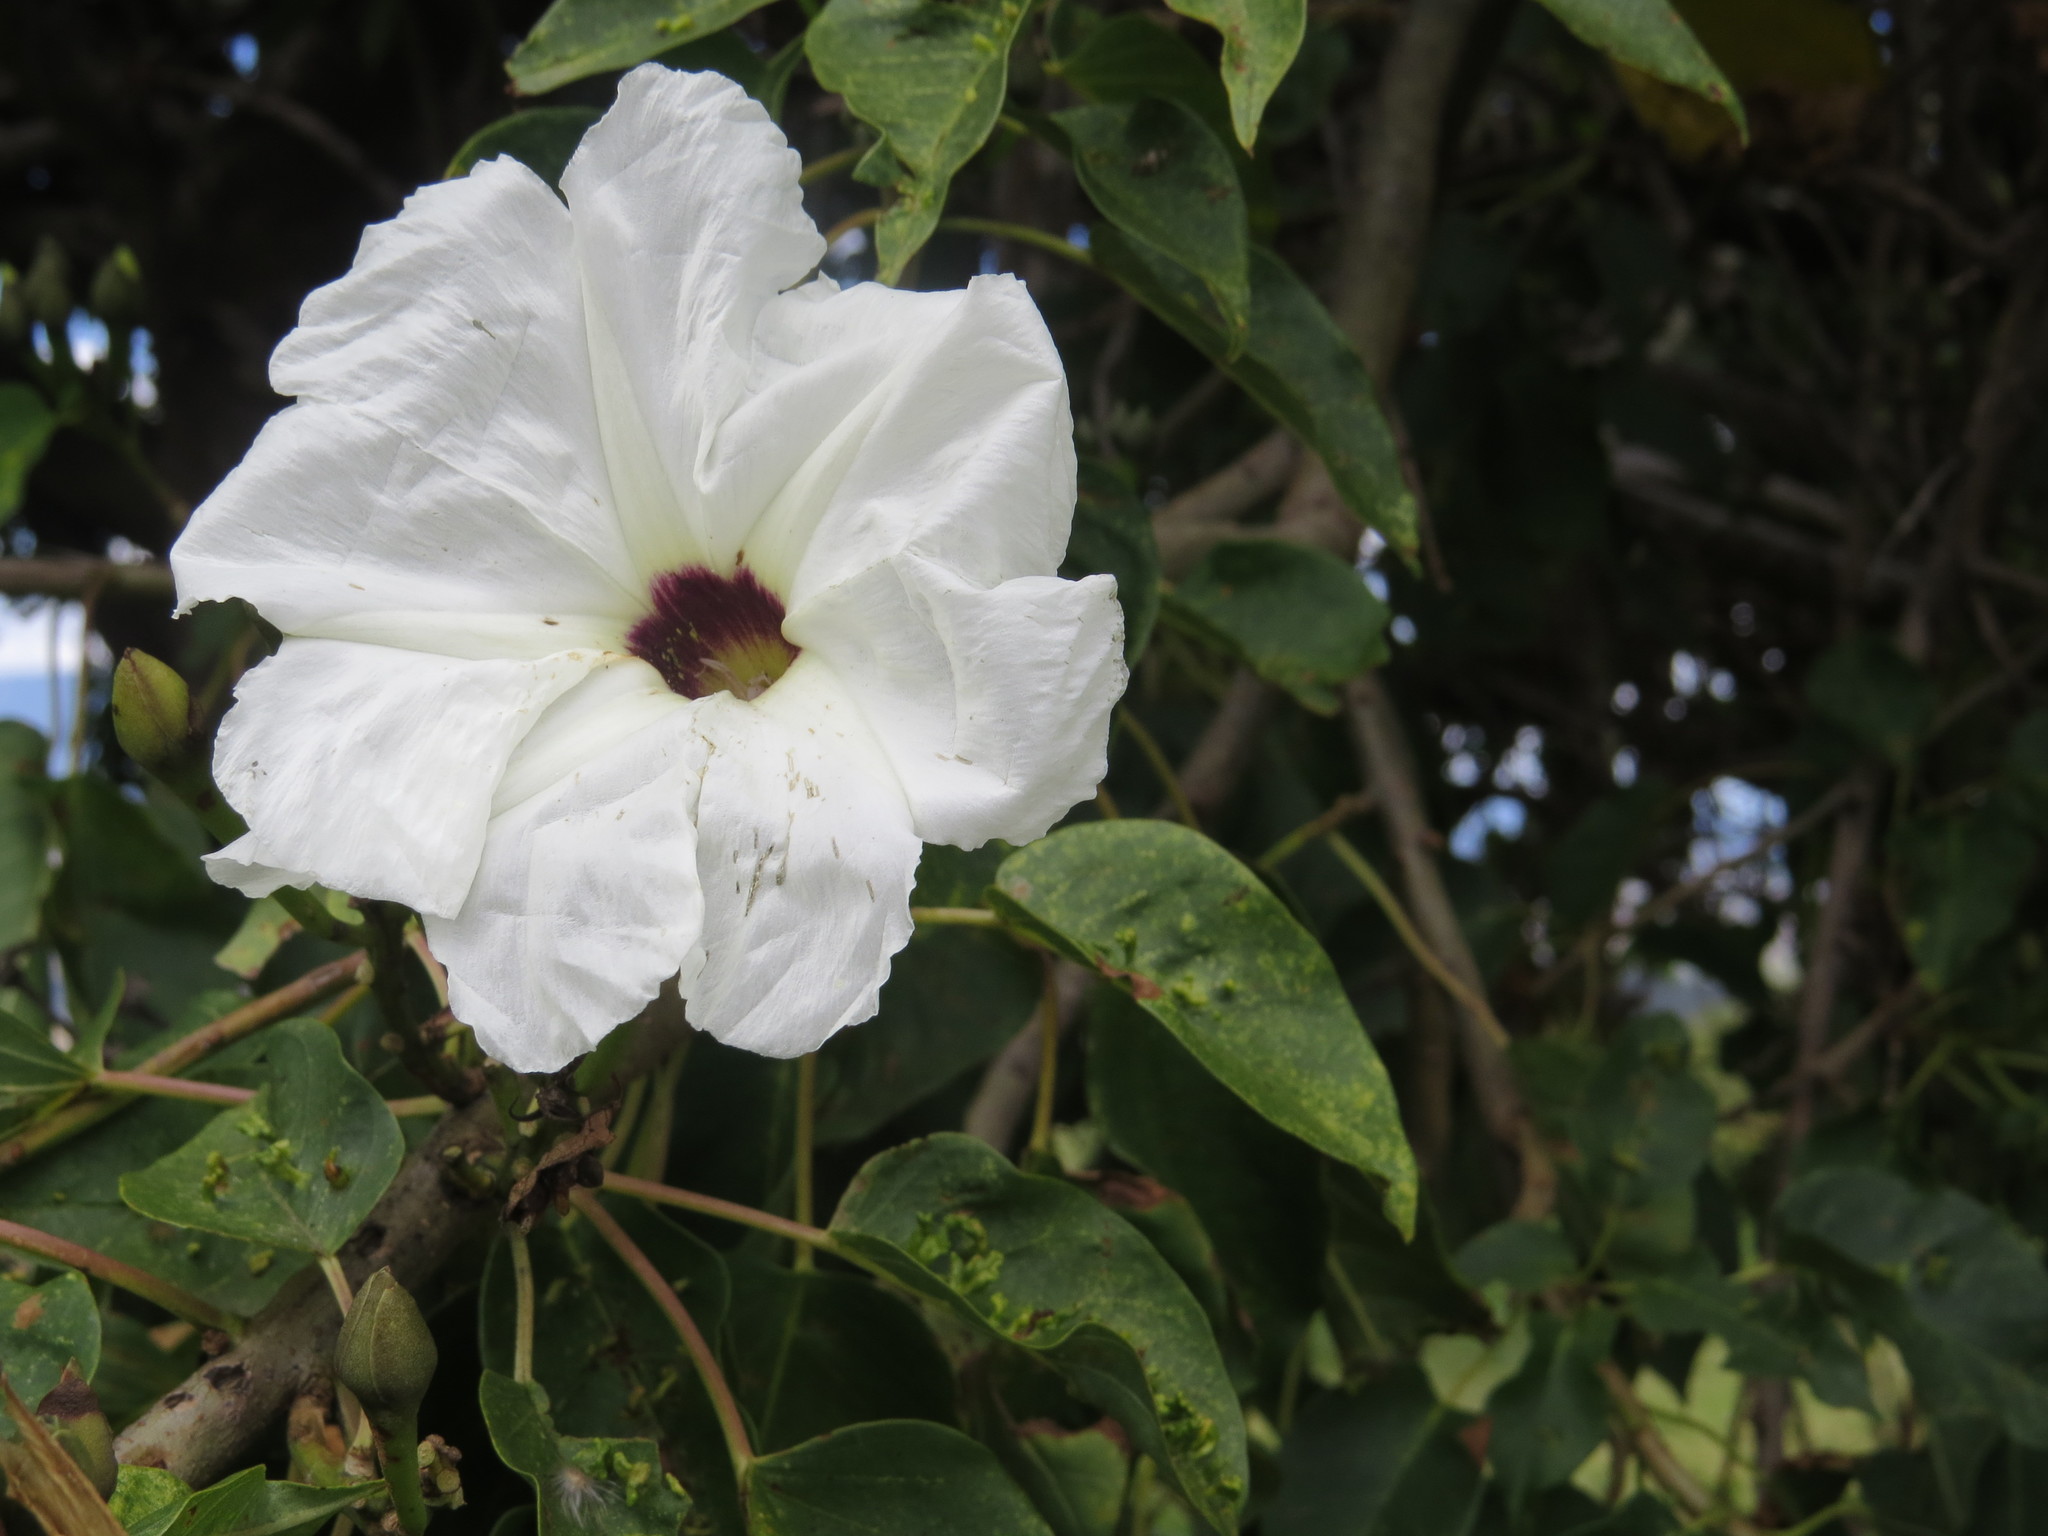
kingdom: Plantae
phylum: Tracheophyta
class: Magnoliopsida
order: Solanales
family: Convolvulaceae
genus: Ipomoea
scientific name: Ipomoea pauciflora
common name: Tree morningglory
